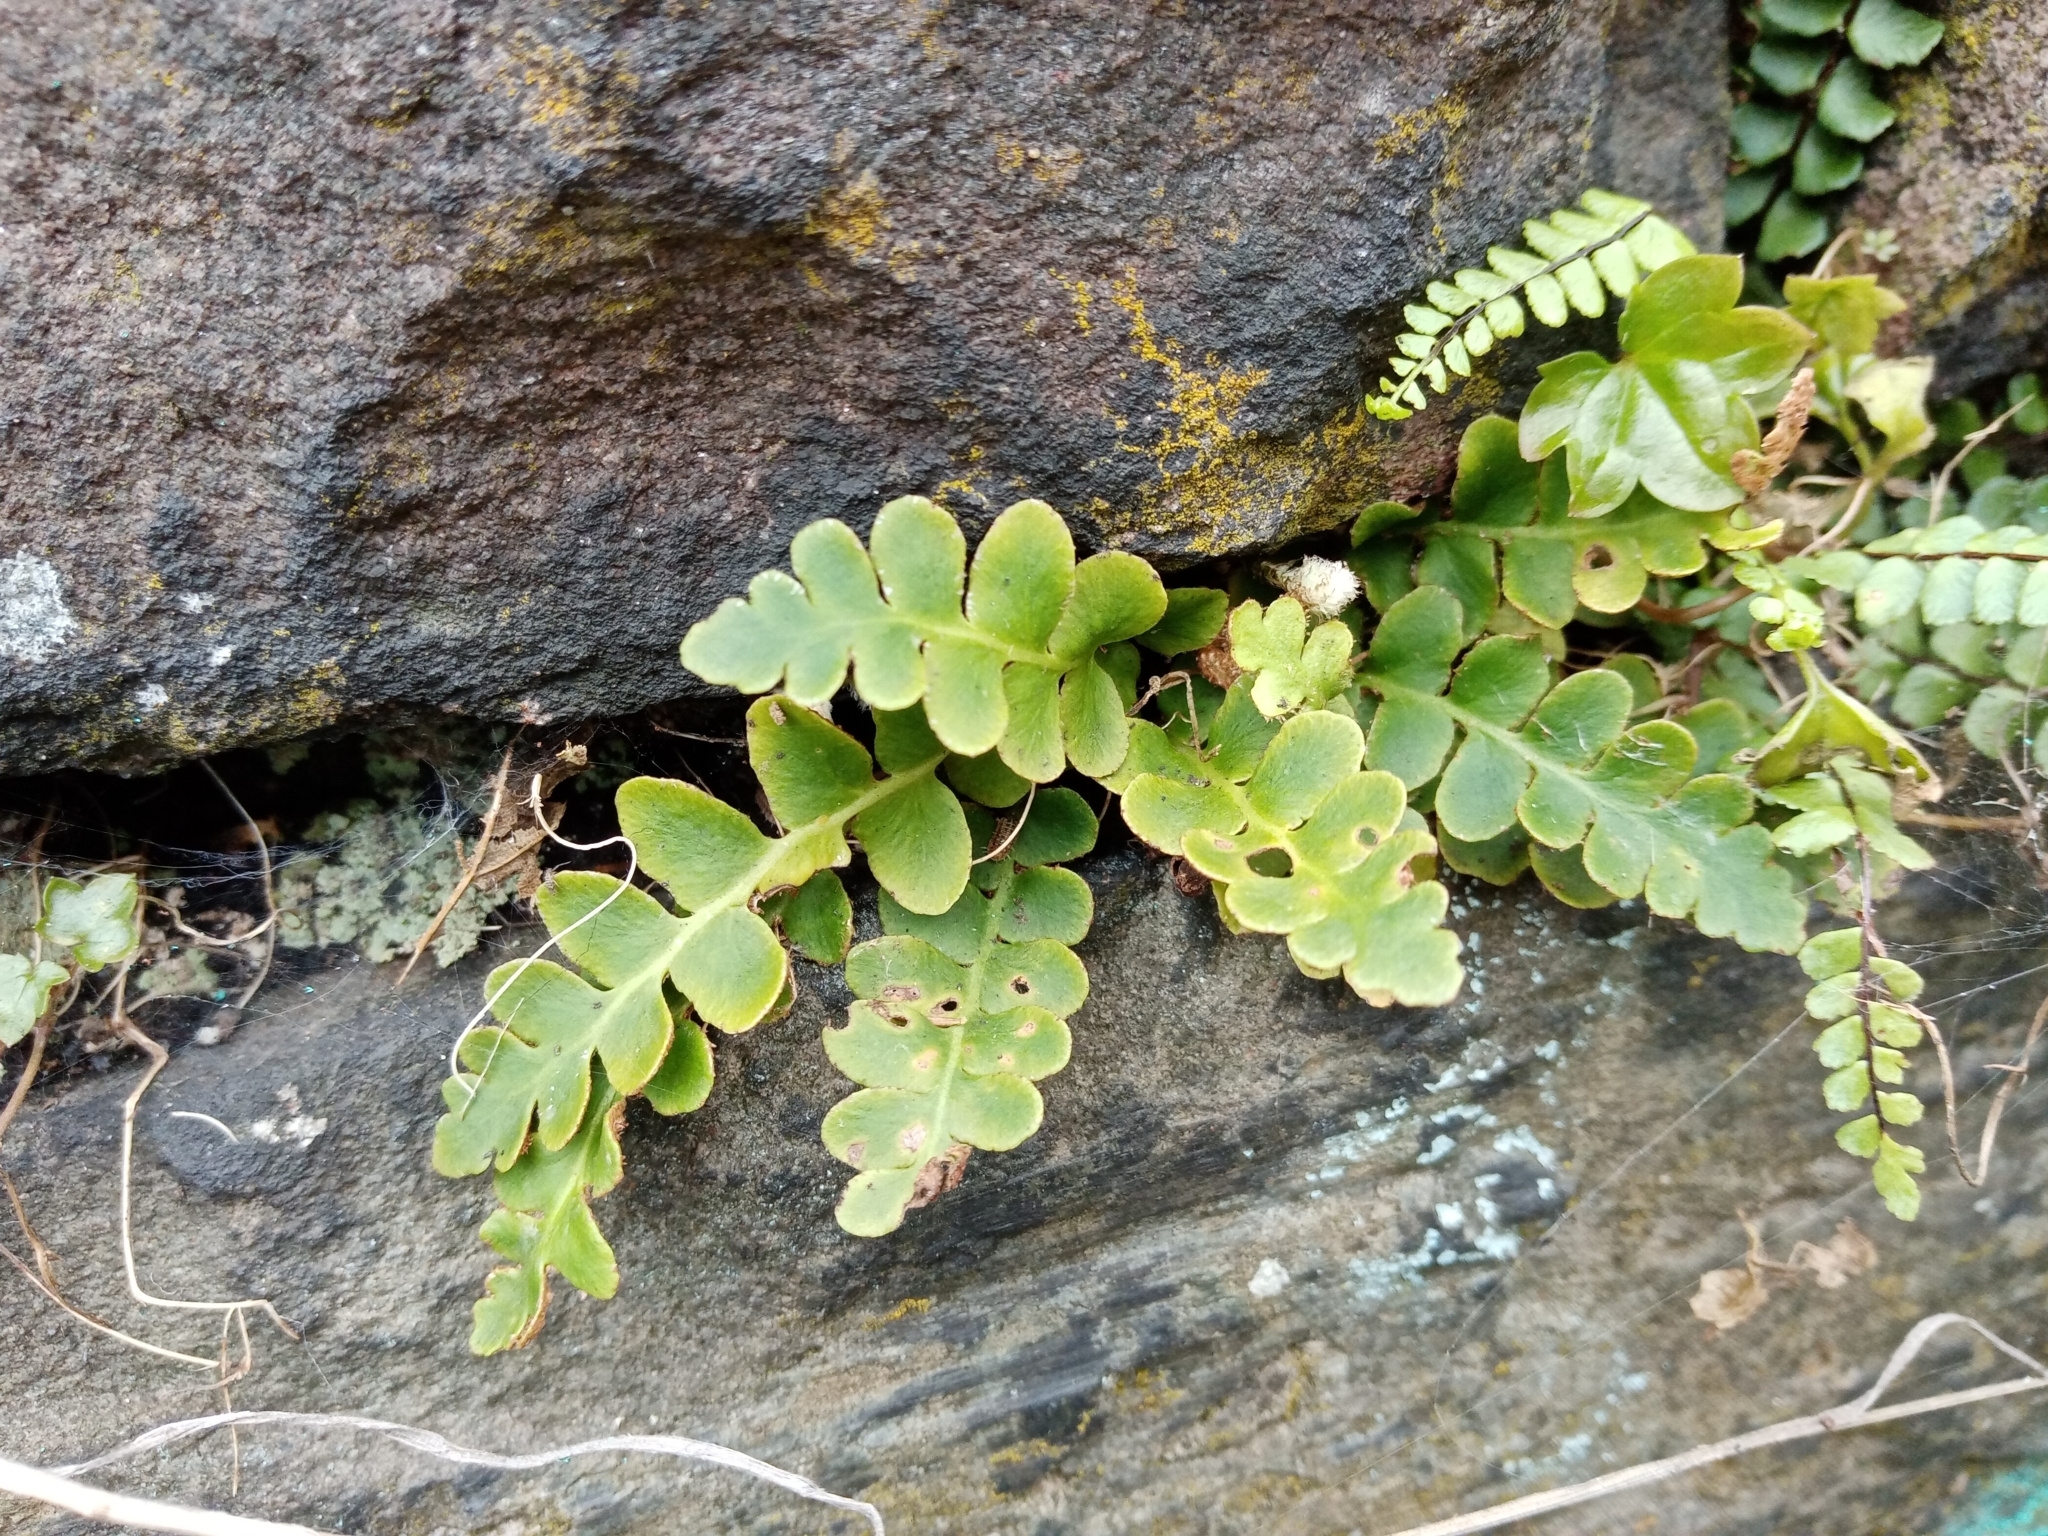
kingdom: Plantae
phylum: Tracheophyta
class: Polypodiopsida
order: Polypodiales
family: Aspleniaceae
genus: Asplenium
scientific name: Asplenium ceterach
